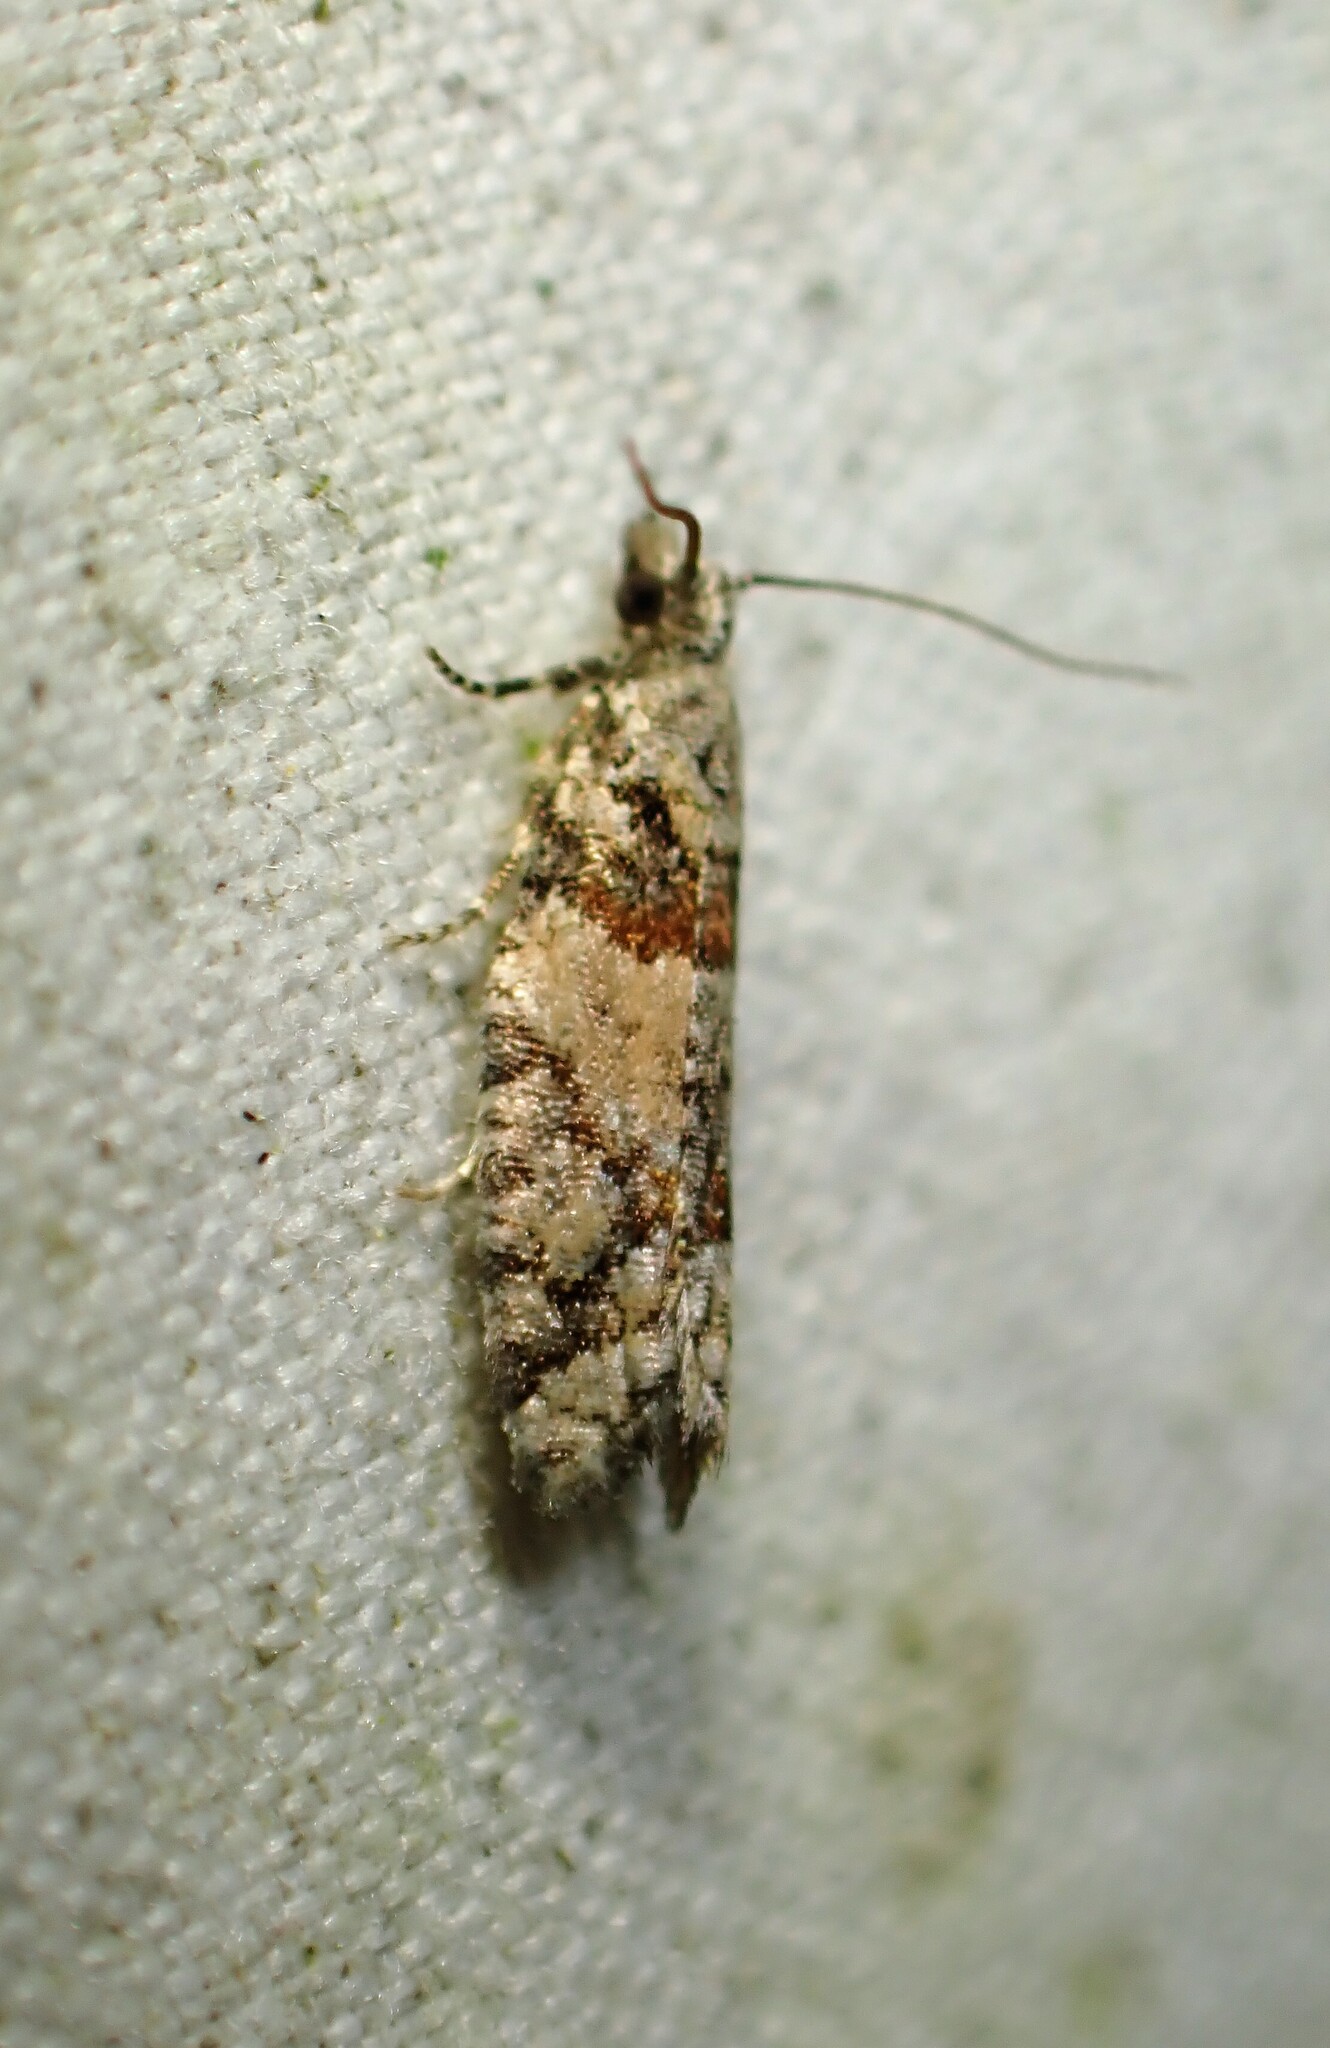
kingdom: Animalia
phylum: Arthropoda
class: Insecta
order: Lepidoptera
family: Tortricidae
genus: Epinotia
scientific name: Epinotia radicana
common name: Red-striped needleworm moth
